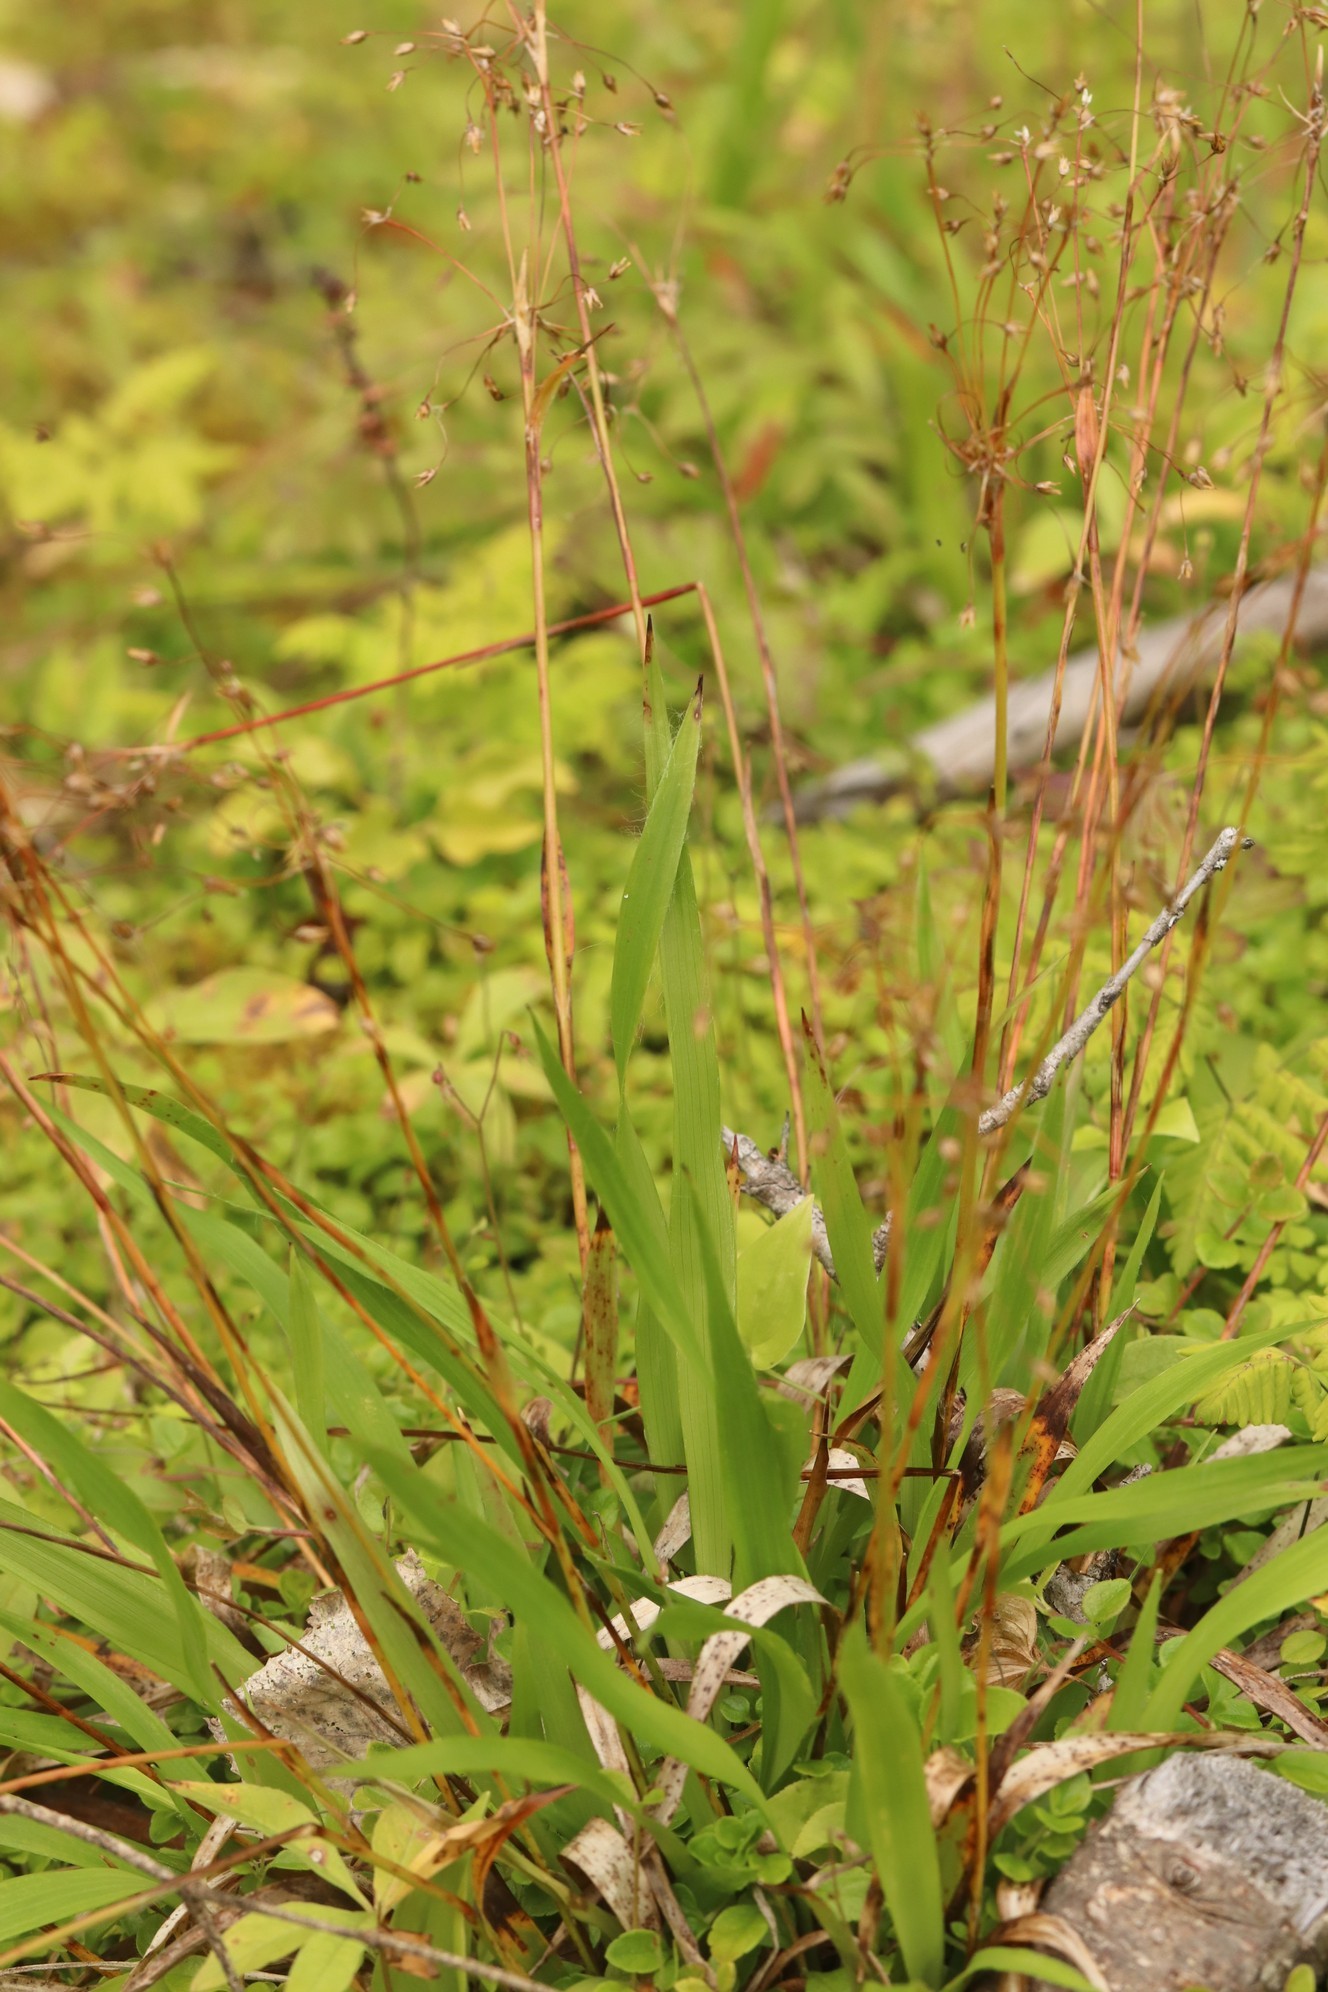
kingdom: Plantae
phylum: Tracheophyta
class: Liliopsida
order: Poales
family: Juncaceae
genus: Luzula
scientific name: Luzula pilosa
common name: Hairy wood-rush
